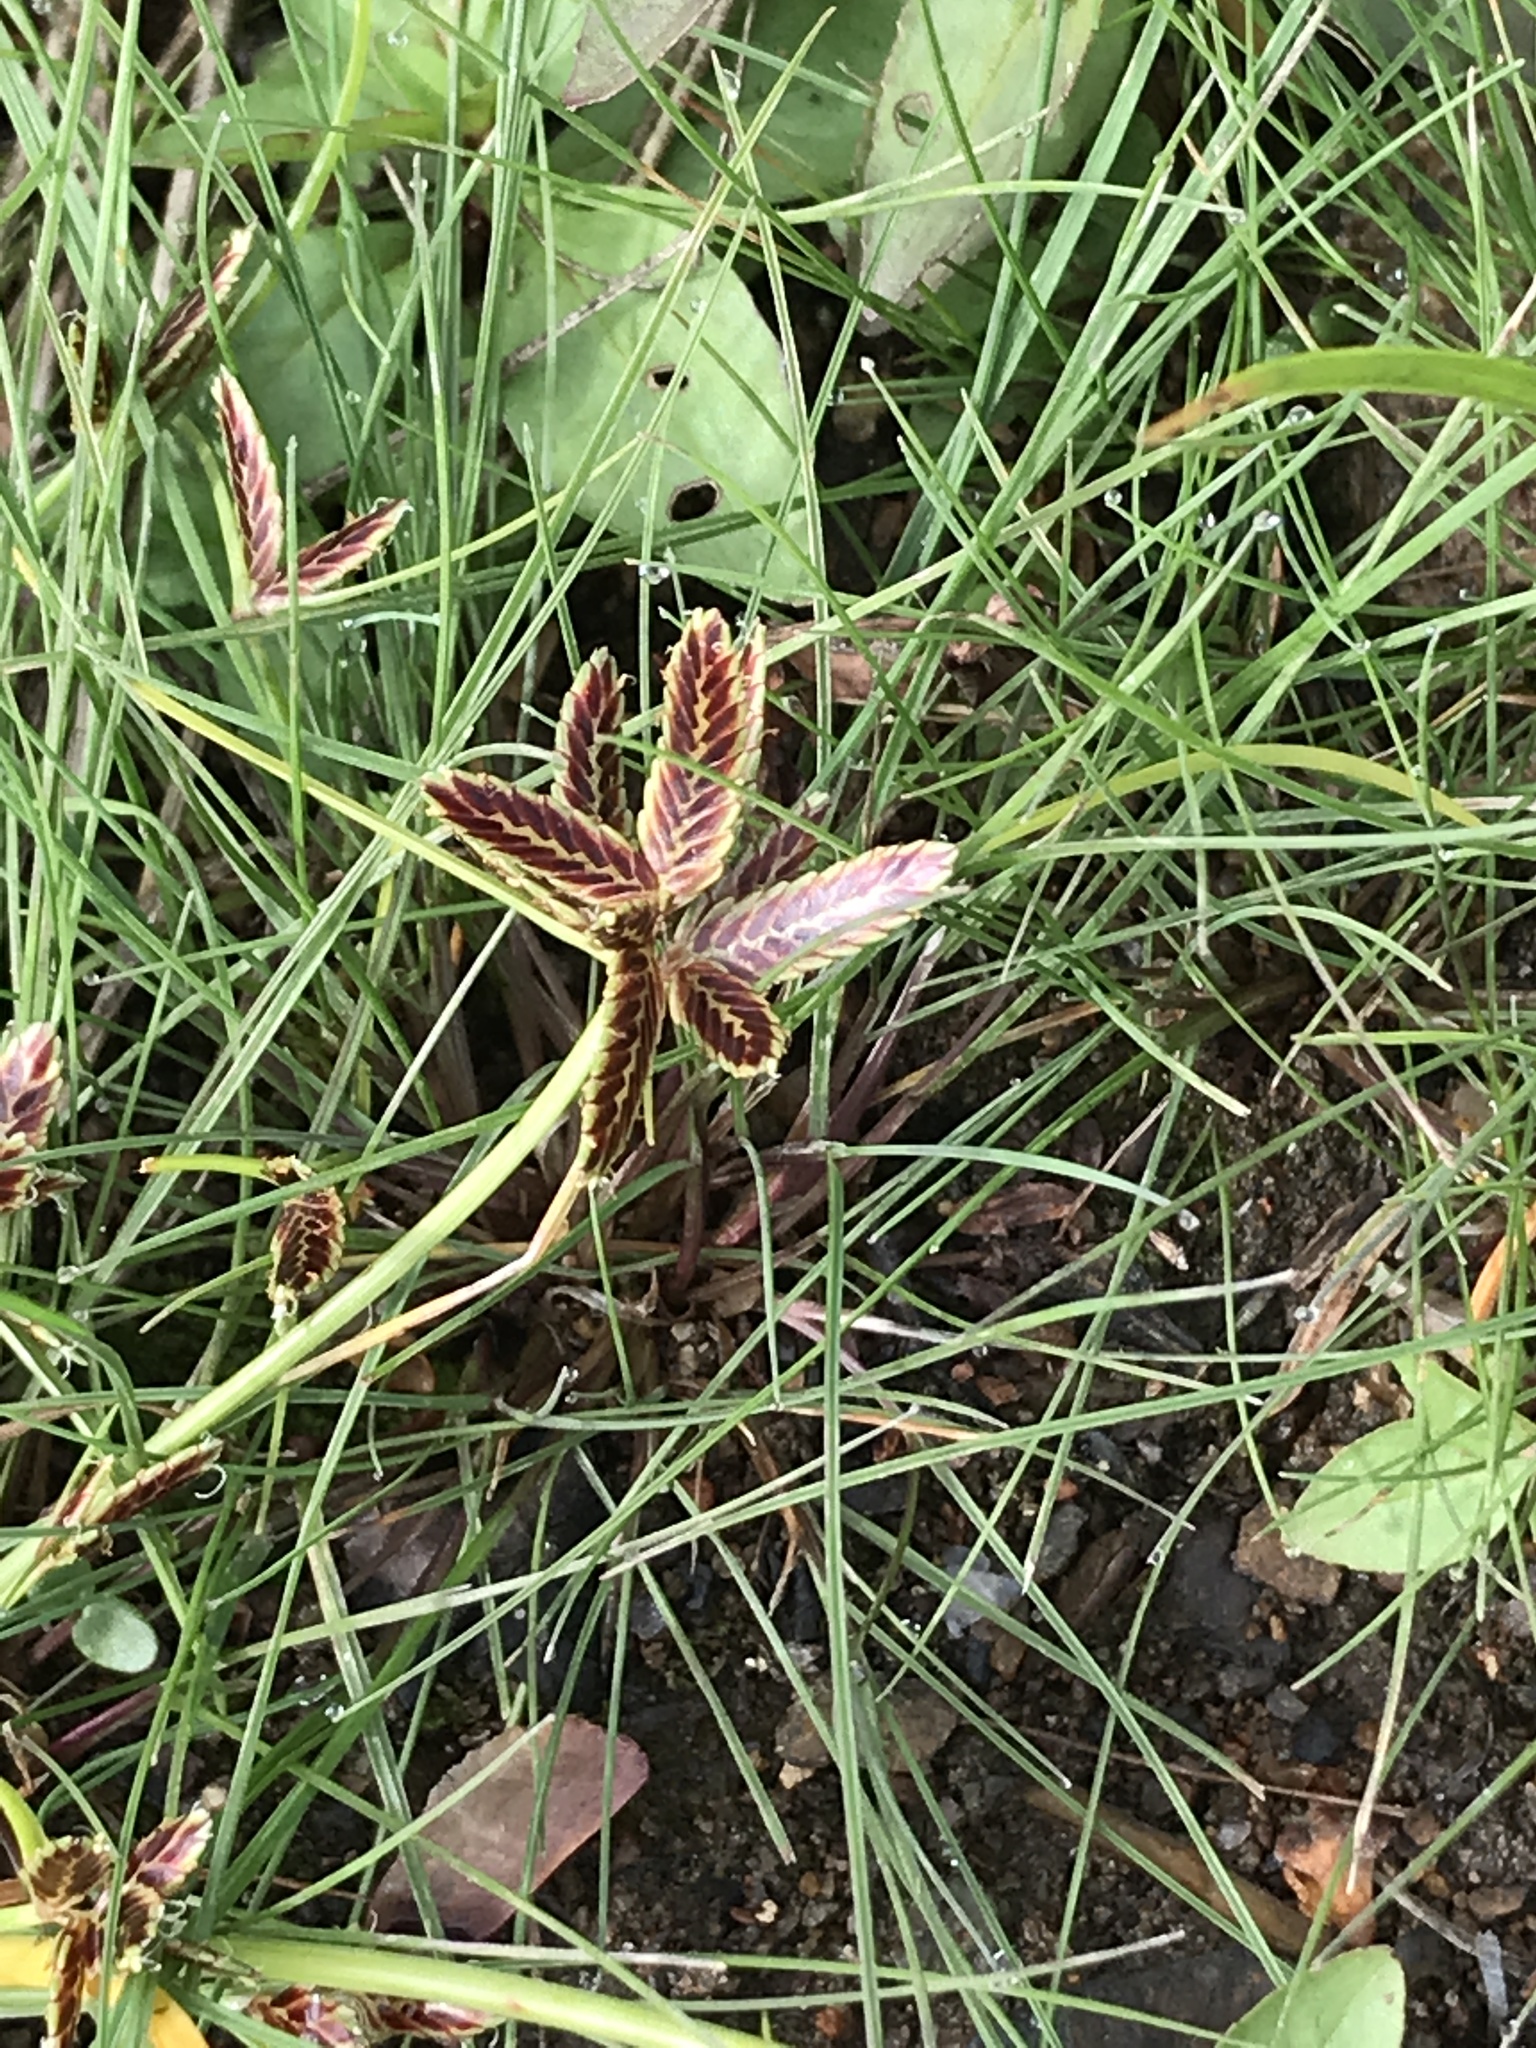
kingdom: Plantae
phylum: Tracheophyta
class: Liliopsida
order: Poales
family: Cyperaceae
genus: Cyperus
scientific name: Cyperus bipartitus
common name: Brook flatsedge
